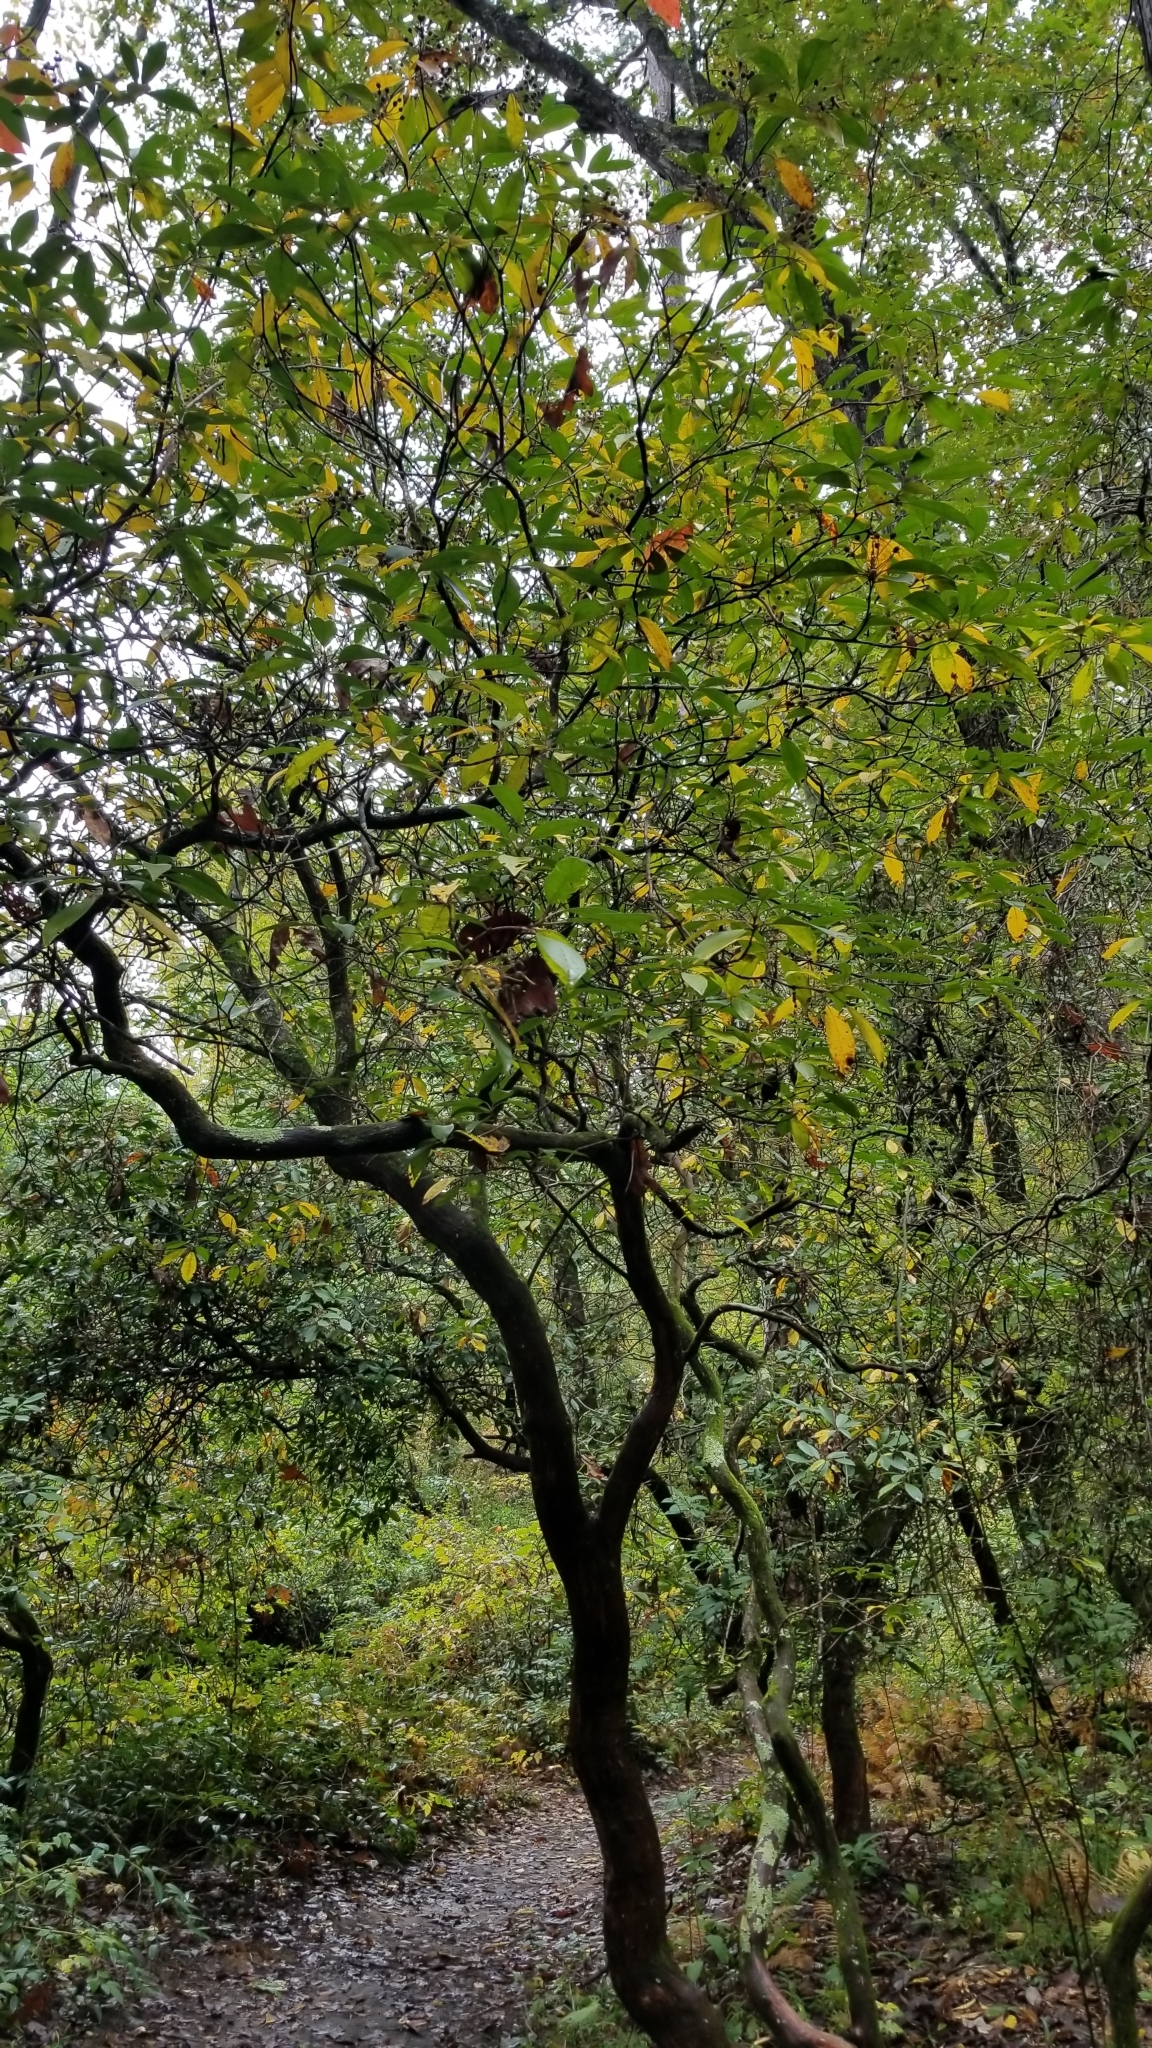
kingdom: Plantae
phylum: Tracheophyta
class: Magnoliopsida
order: Ericales
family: Ericaceae
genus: Kalmia
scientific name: Kalmia latifolia
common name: Mountain-laurel
